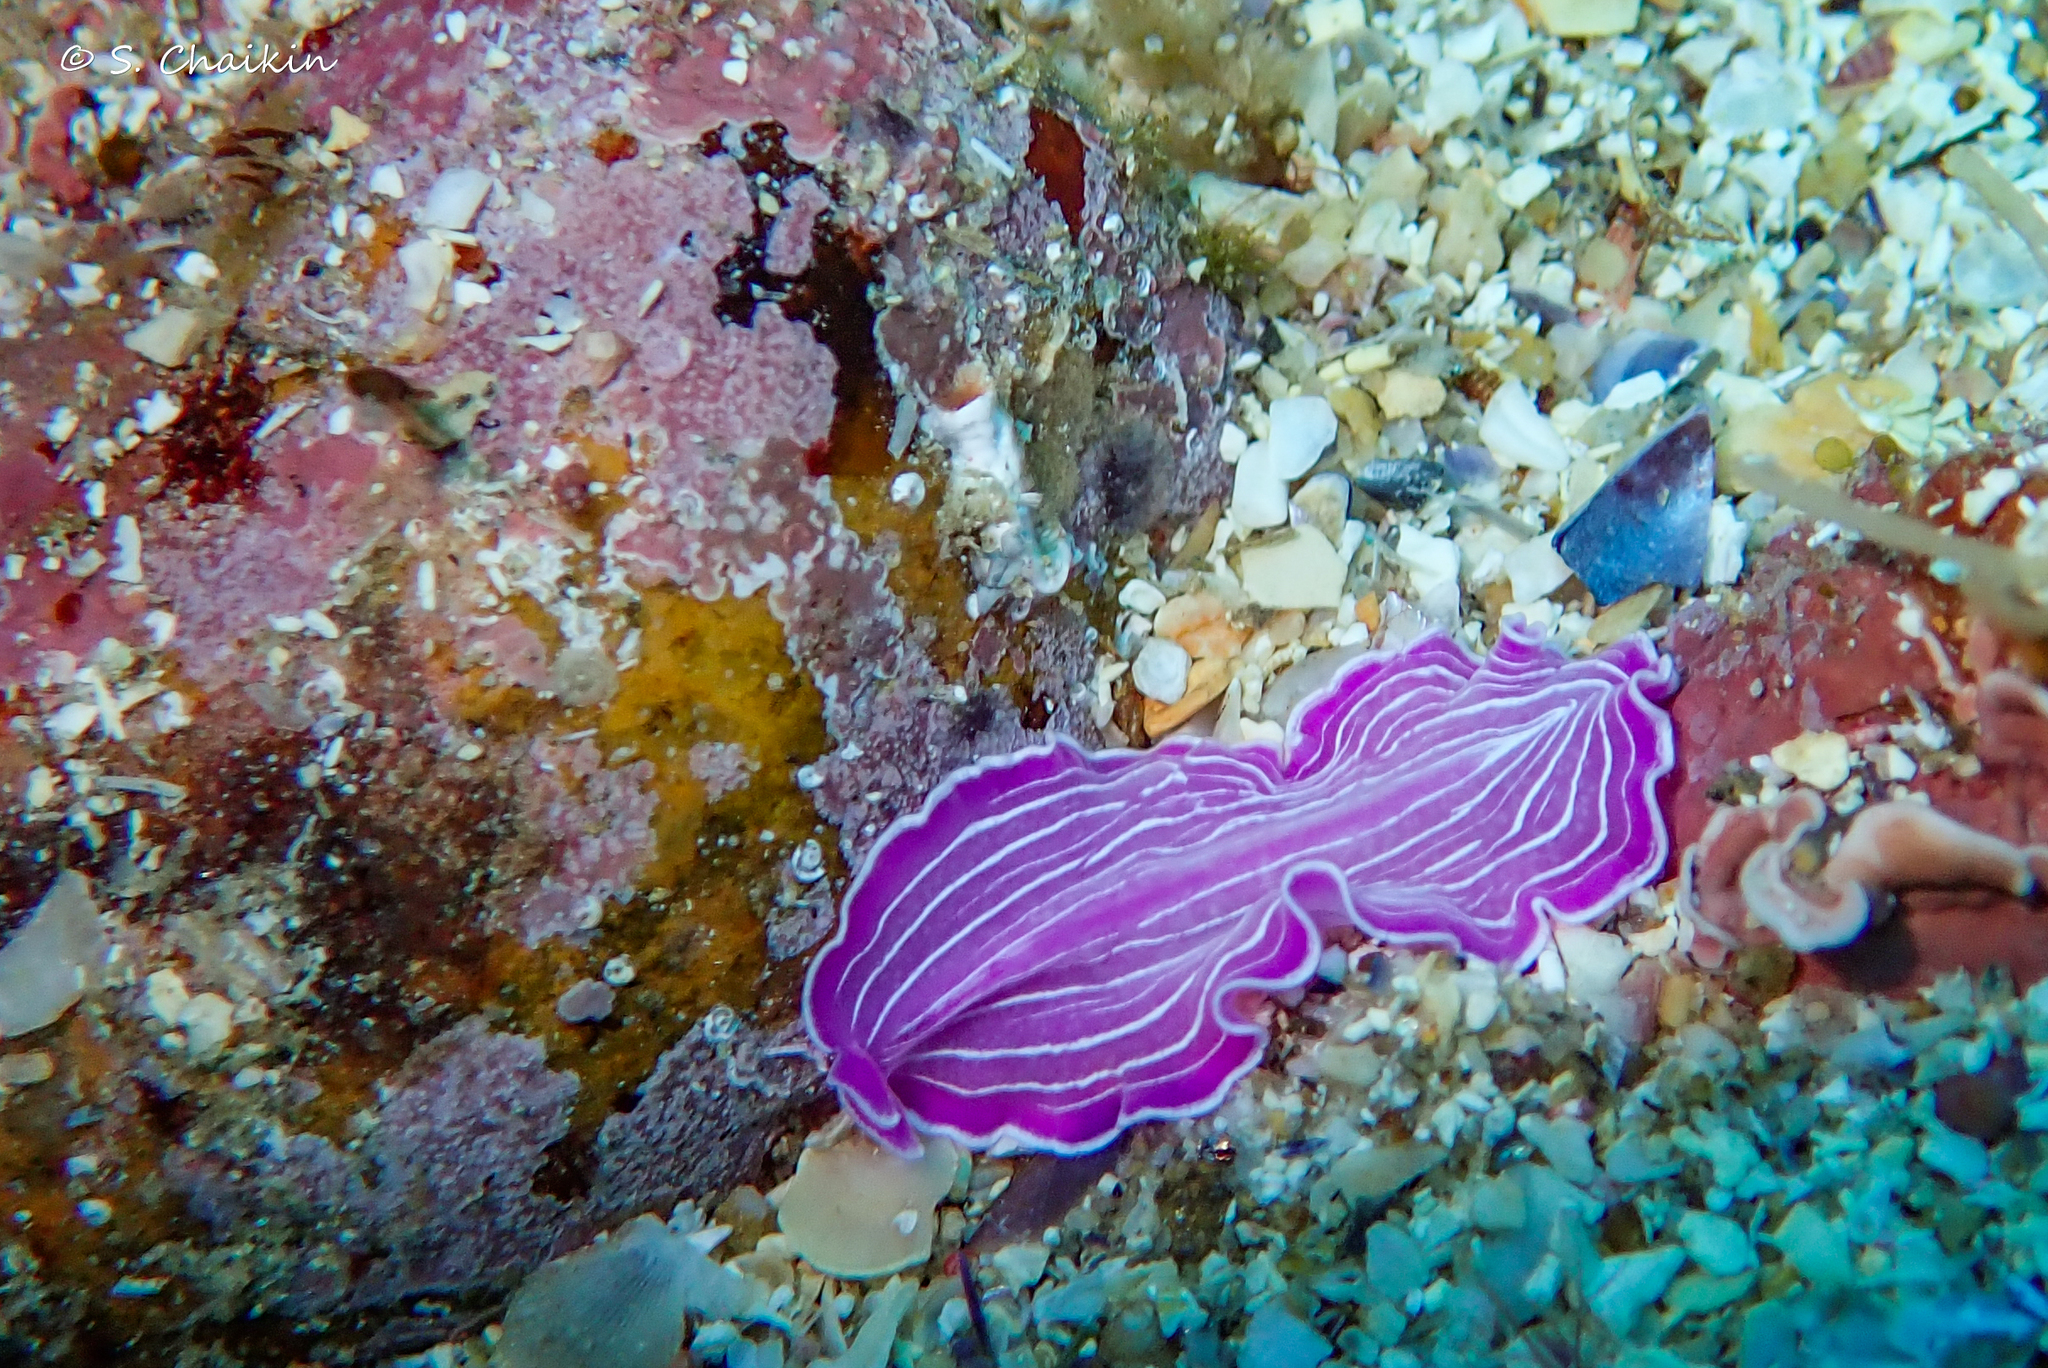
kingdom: Animalia
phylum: Platyhelminthes
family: Euryleptidae
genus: Prostheceraeus
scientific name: Prostheceraeus roseus
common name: Pink flatworm
